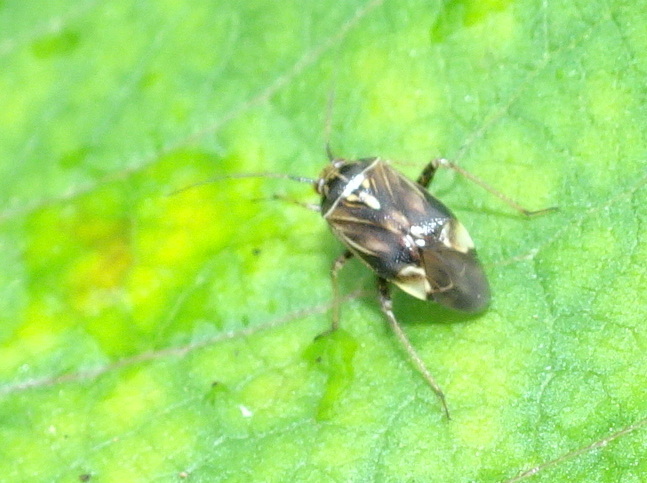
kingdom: Animalia
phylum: Arthropoda
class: Insecta
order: Hemiptera
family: Miridae
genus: Lygus
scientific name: Lygus lineolaris
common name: North american tarnished plant bug
